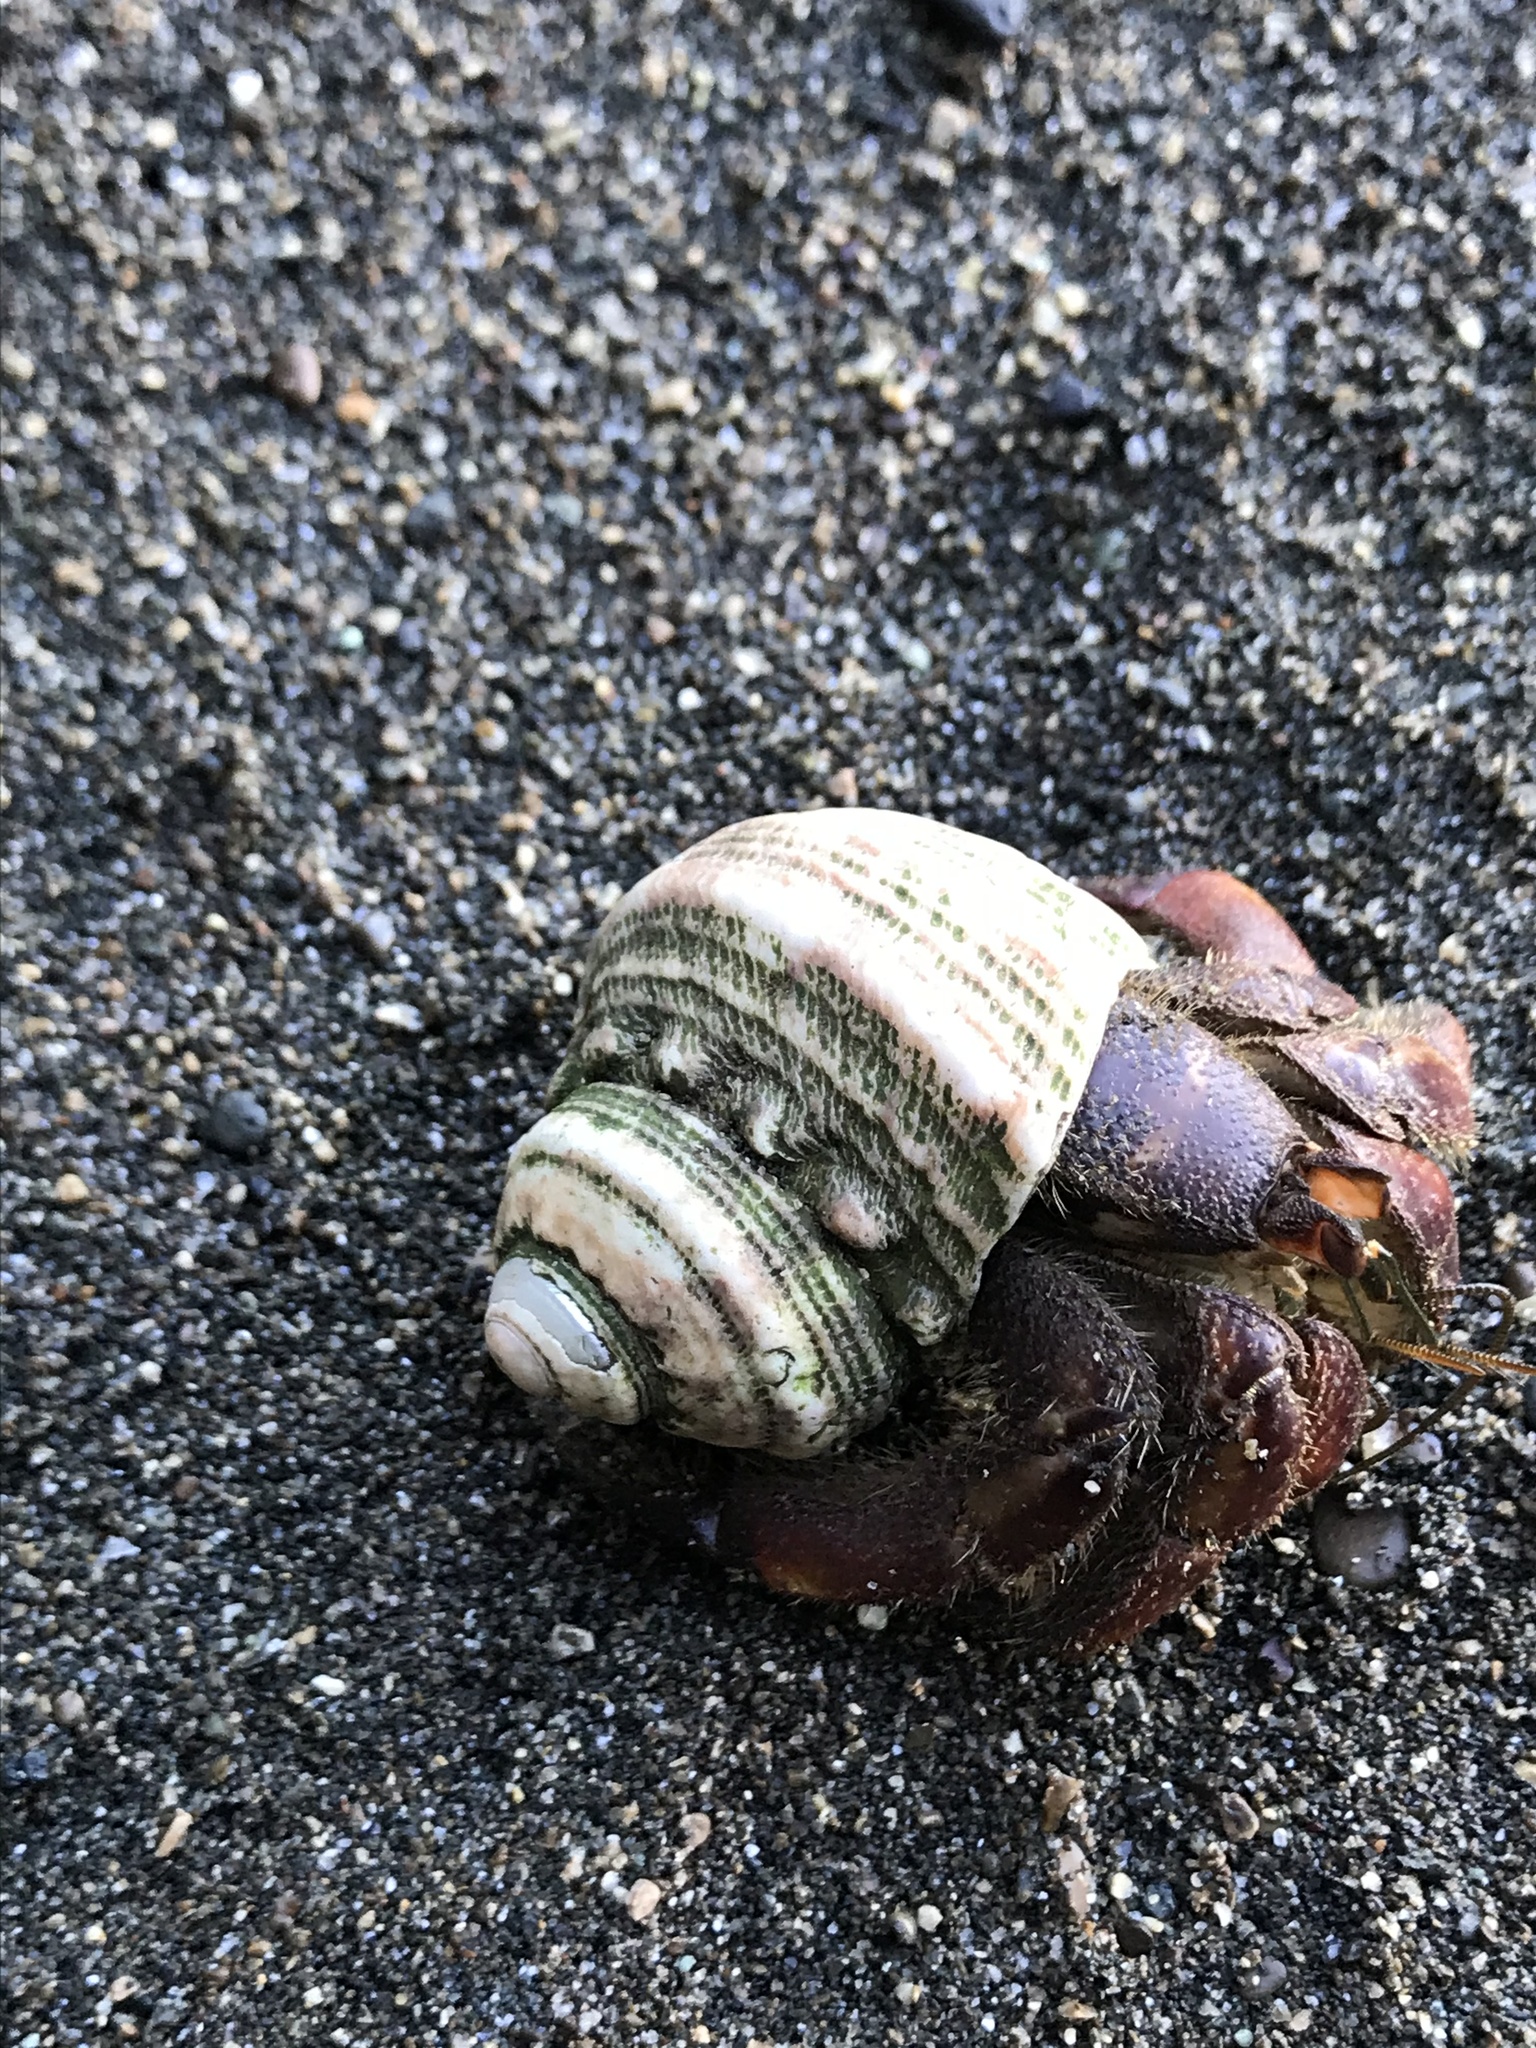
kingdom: Animalia
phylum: Arthropoda
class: Malacostraca
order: Decapoda
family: Coenobitidae
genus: Coenobita
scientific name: Coenobita compressus
